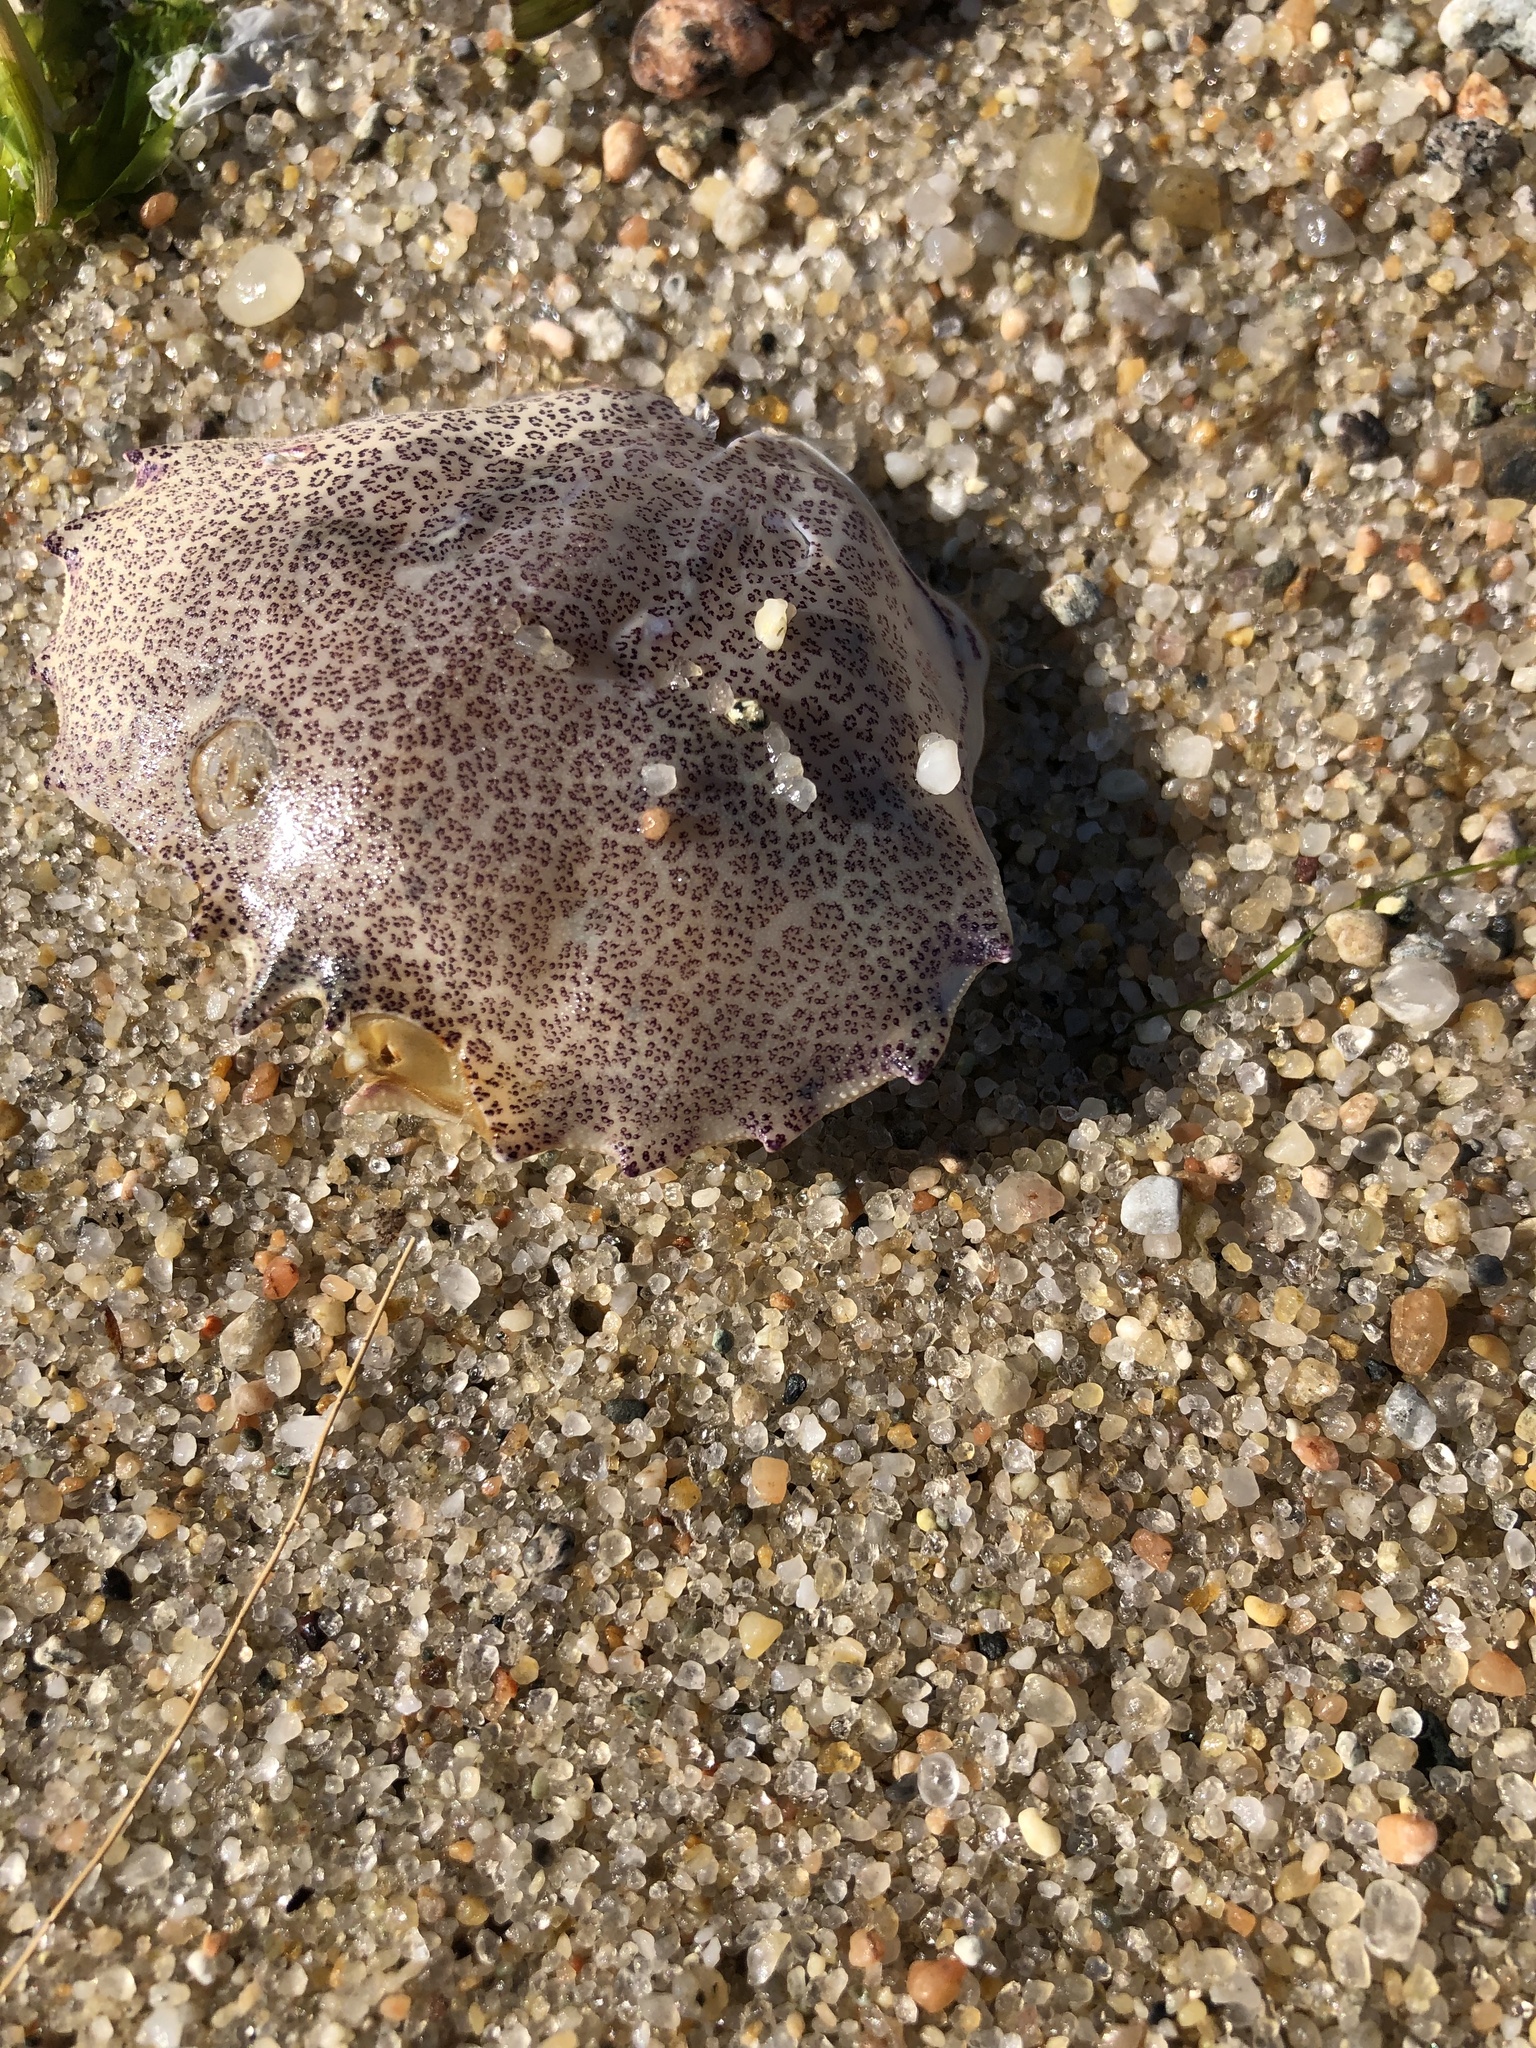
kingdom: Animalia
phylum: Arthropoda
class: Malacostraca
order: Decapoda
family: Ovalipidae
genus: Ovalipes
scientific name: Ovalipes ocellatus
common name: Lady crab
